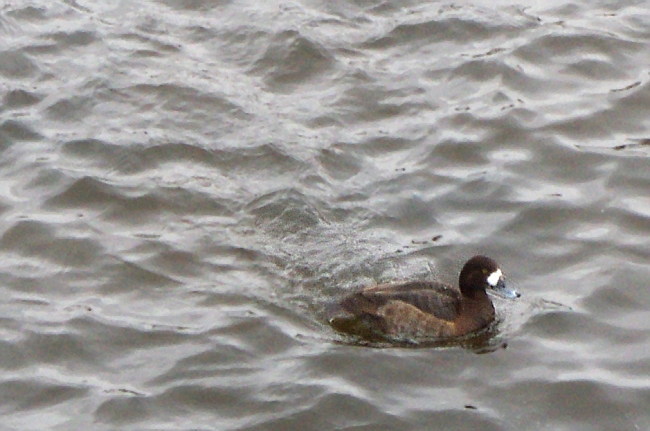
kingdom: Animalia
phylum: Chordata
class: Aves
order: Anseriformes
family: Anatidae
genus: Aythya
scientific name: Aythya marila
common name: Greater scaup
